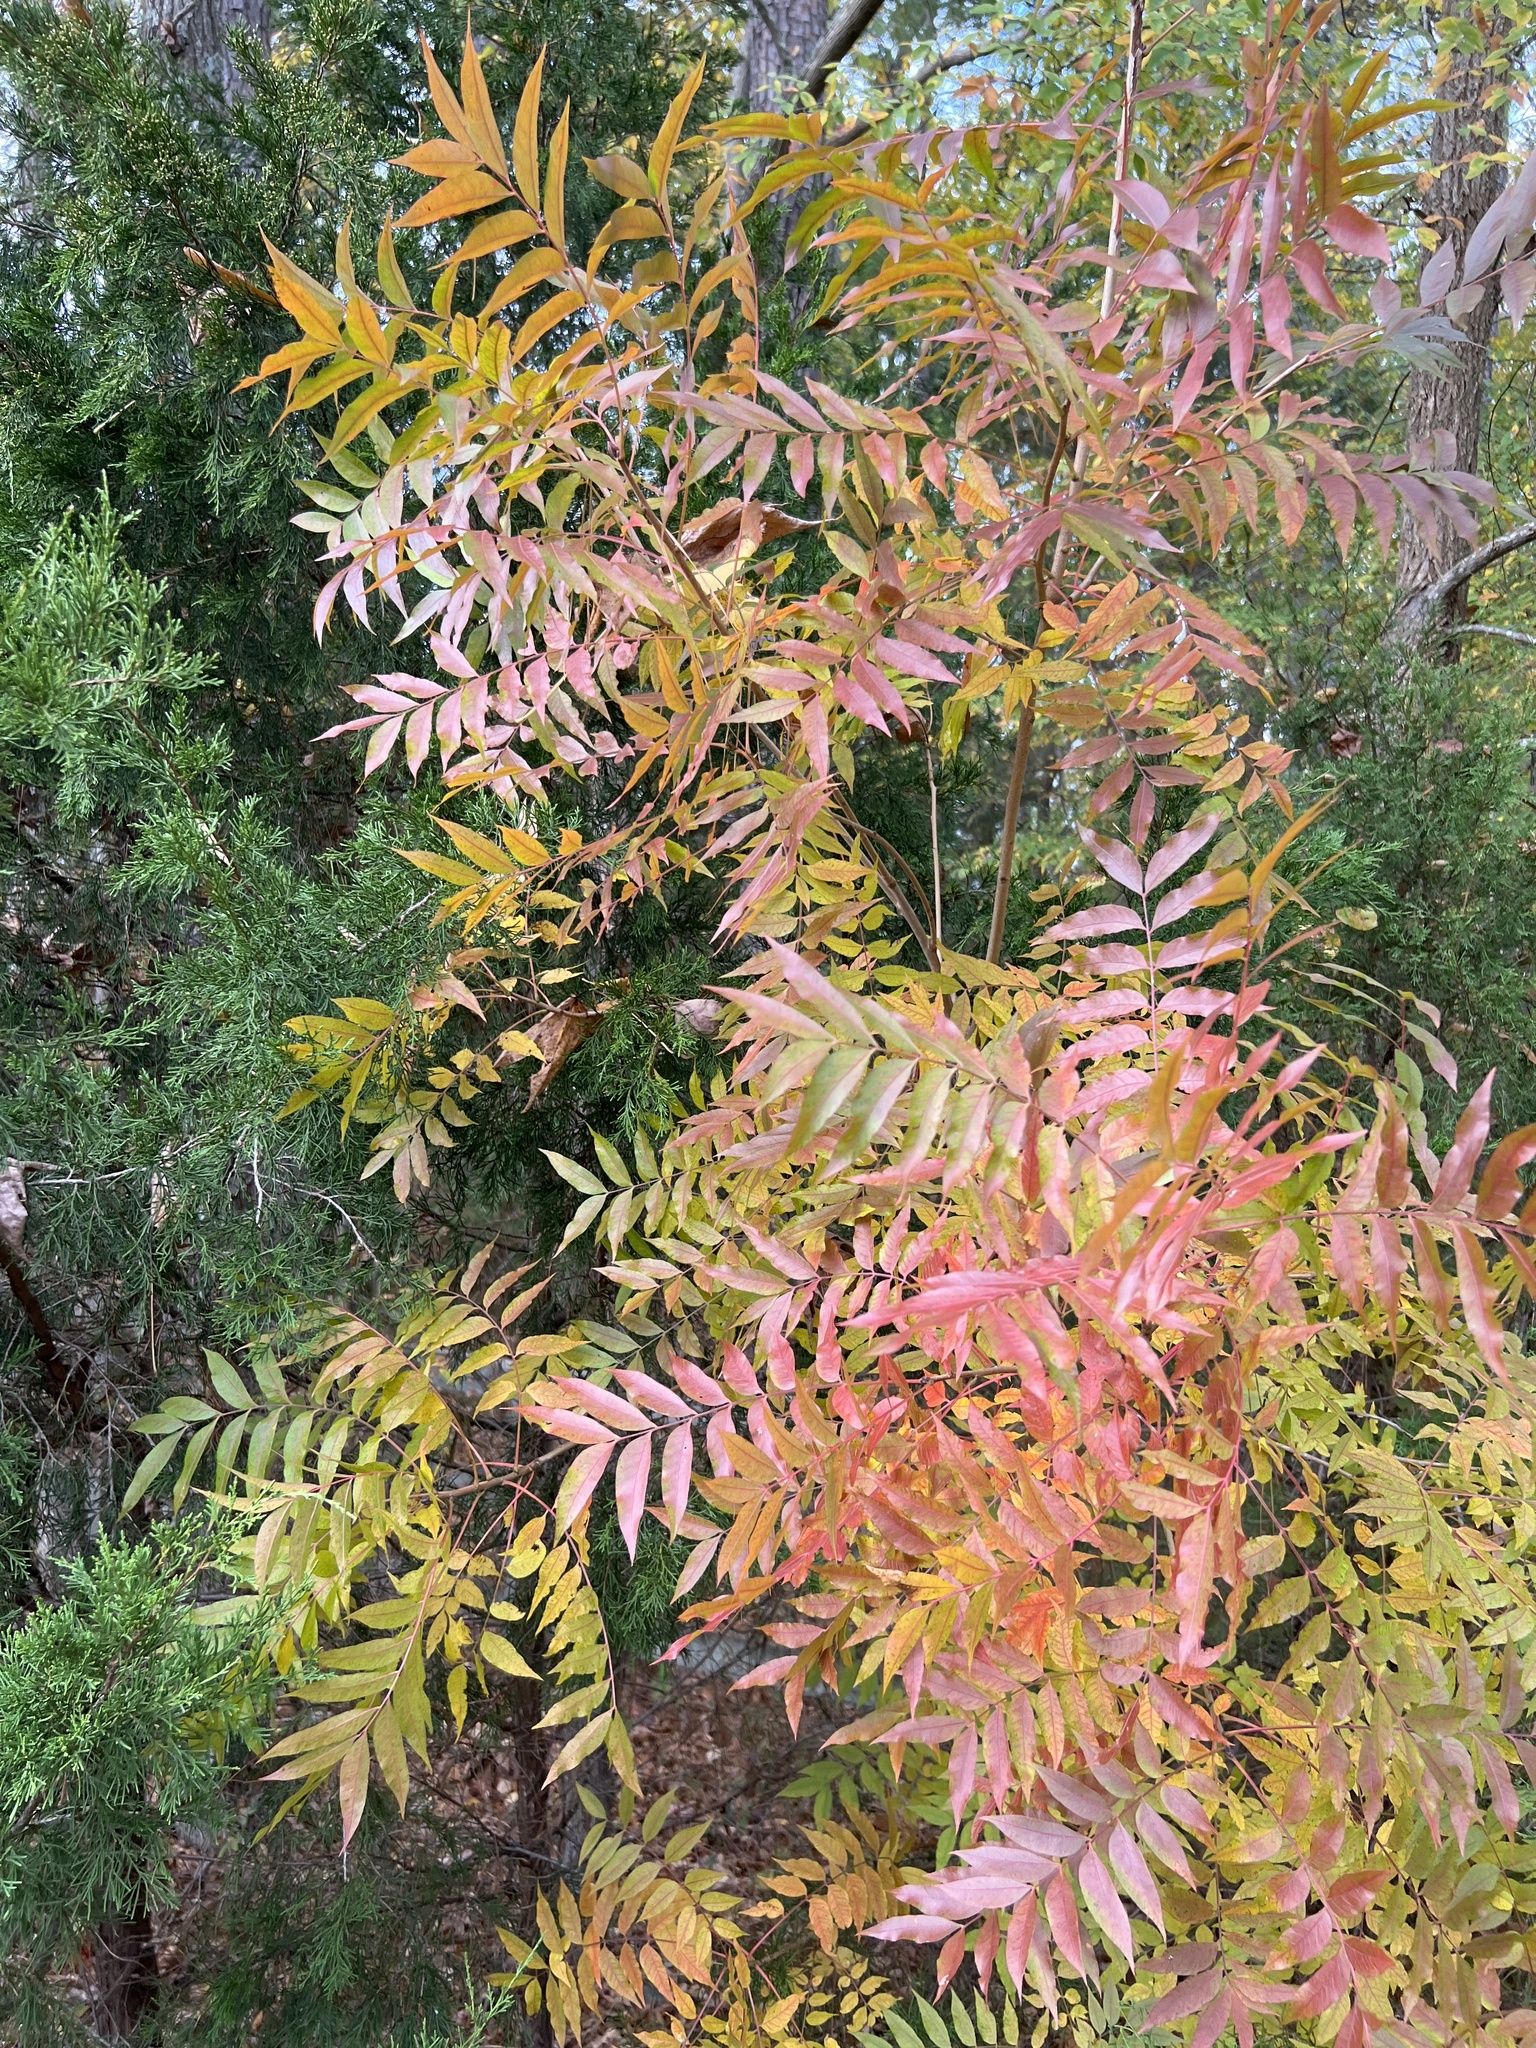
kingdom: Plantae
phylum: Tracheophyta
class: Magnoliopsida
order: Sapindales
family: Anacardiaceae
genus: Pistacia
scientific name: Pistacia chinensis
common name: Chinese pistache
